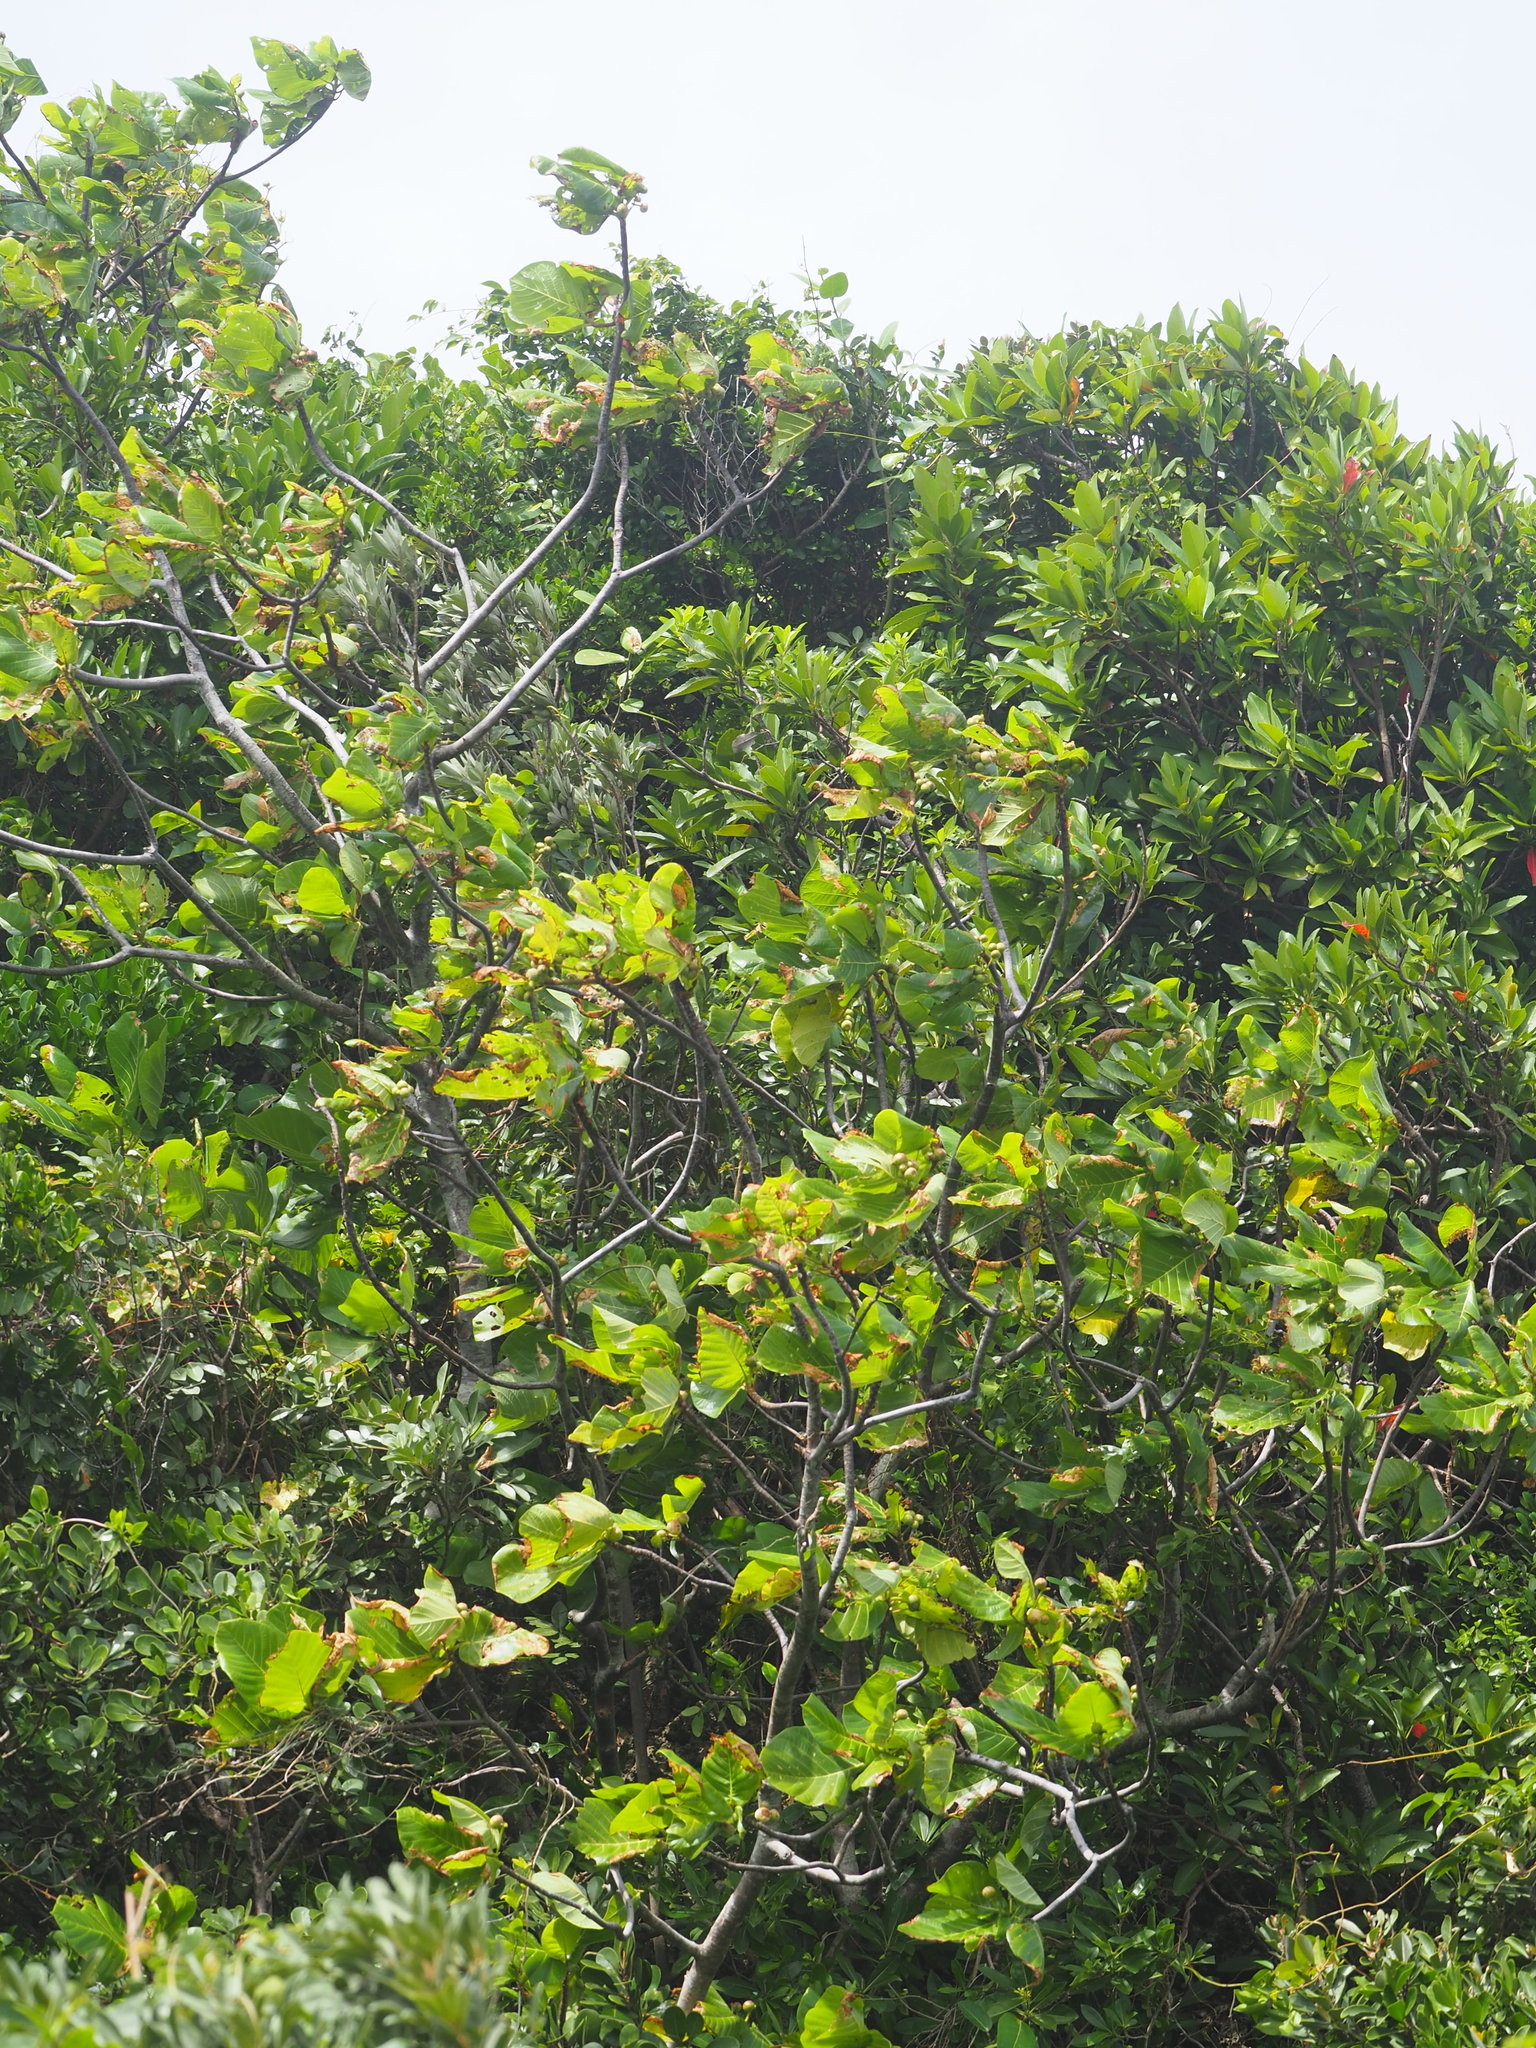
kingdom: Plantae
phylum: Tracheophyta
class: Magnoliopsida
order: Gentianales
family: Rubiaceae
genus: Guettarda
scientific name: Guettarda speciosa
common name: Sea randa
